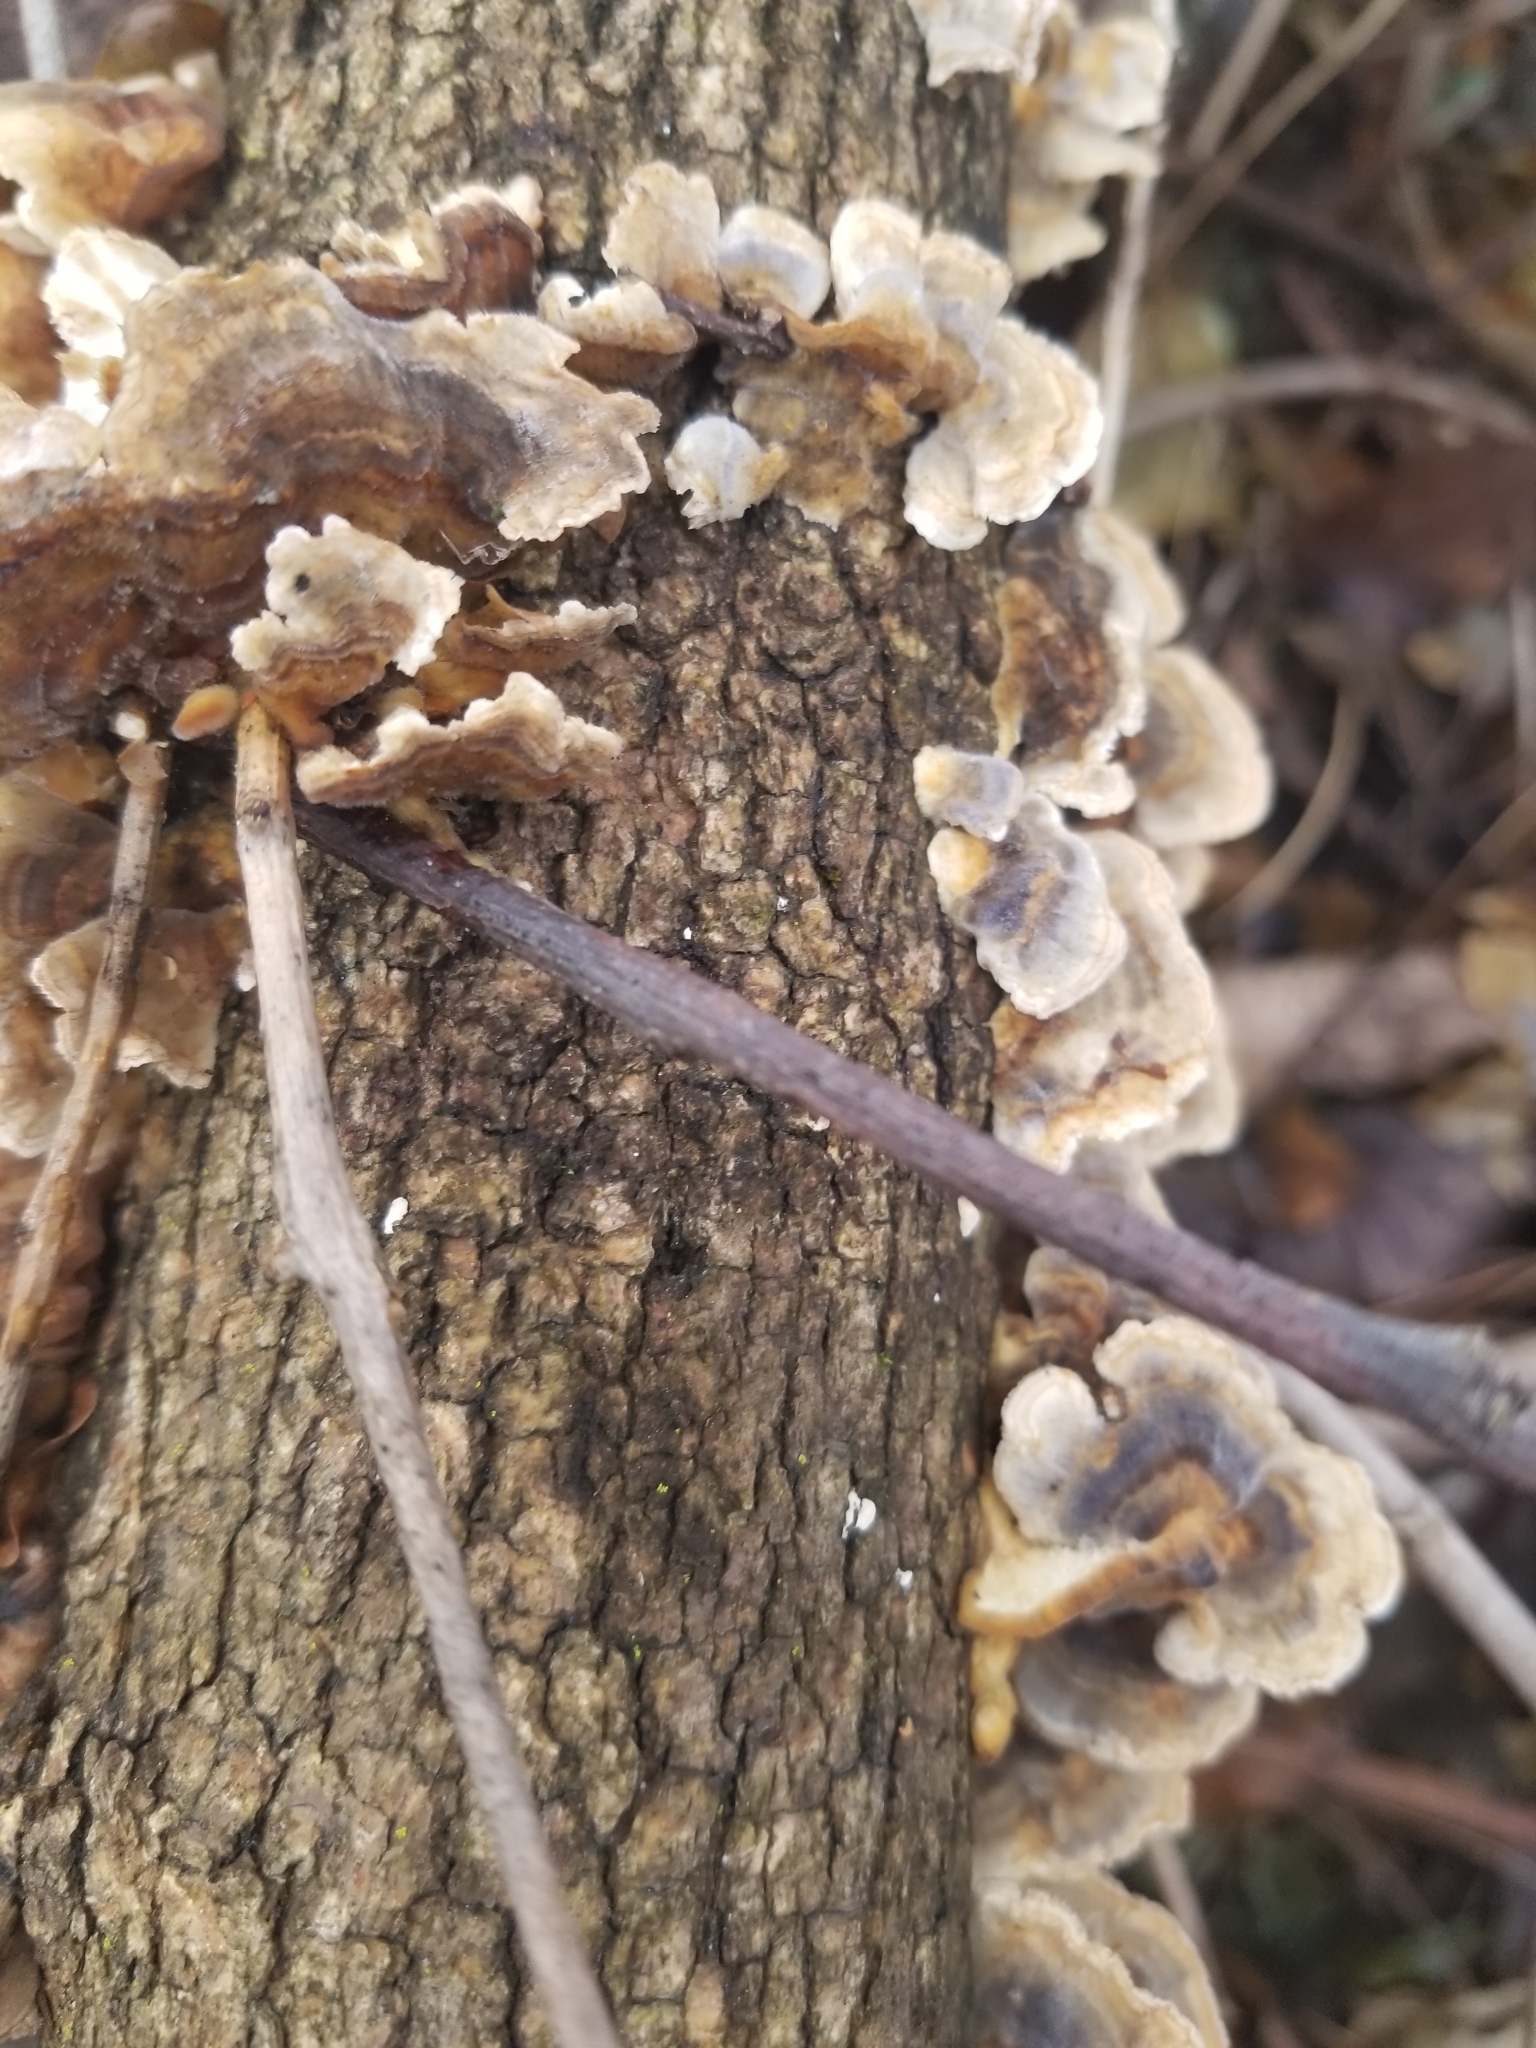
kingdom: Fungi
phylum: Basidiomycota
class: Agaricomycetes
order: Polyporales
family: Polyporaceae
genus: Trametes
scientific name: Trametes versicolor
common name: Turkeytail
